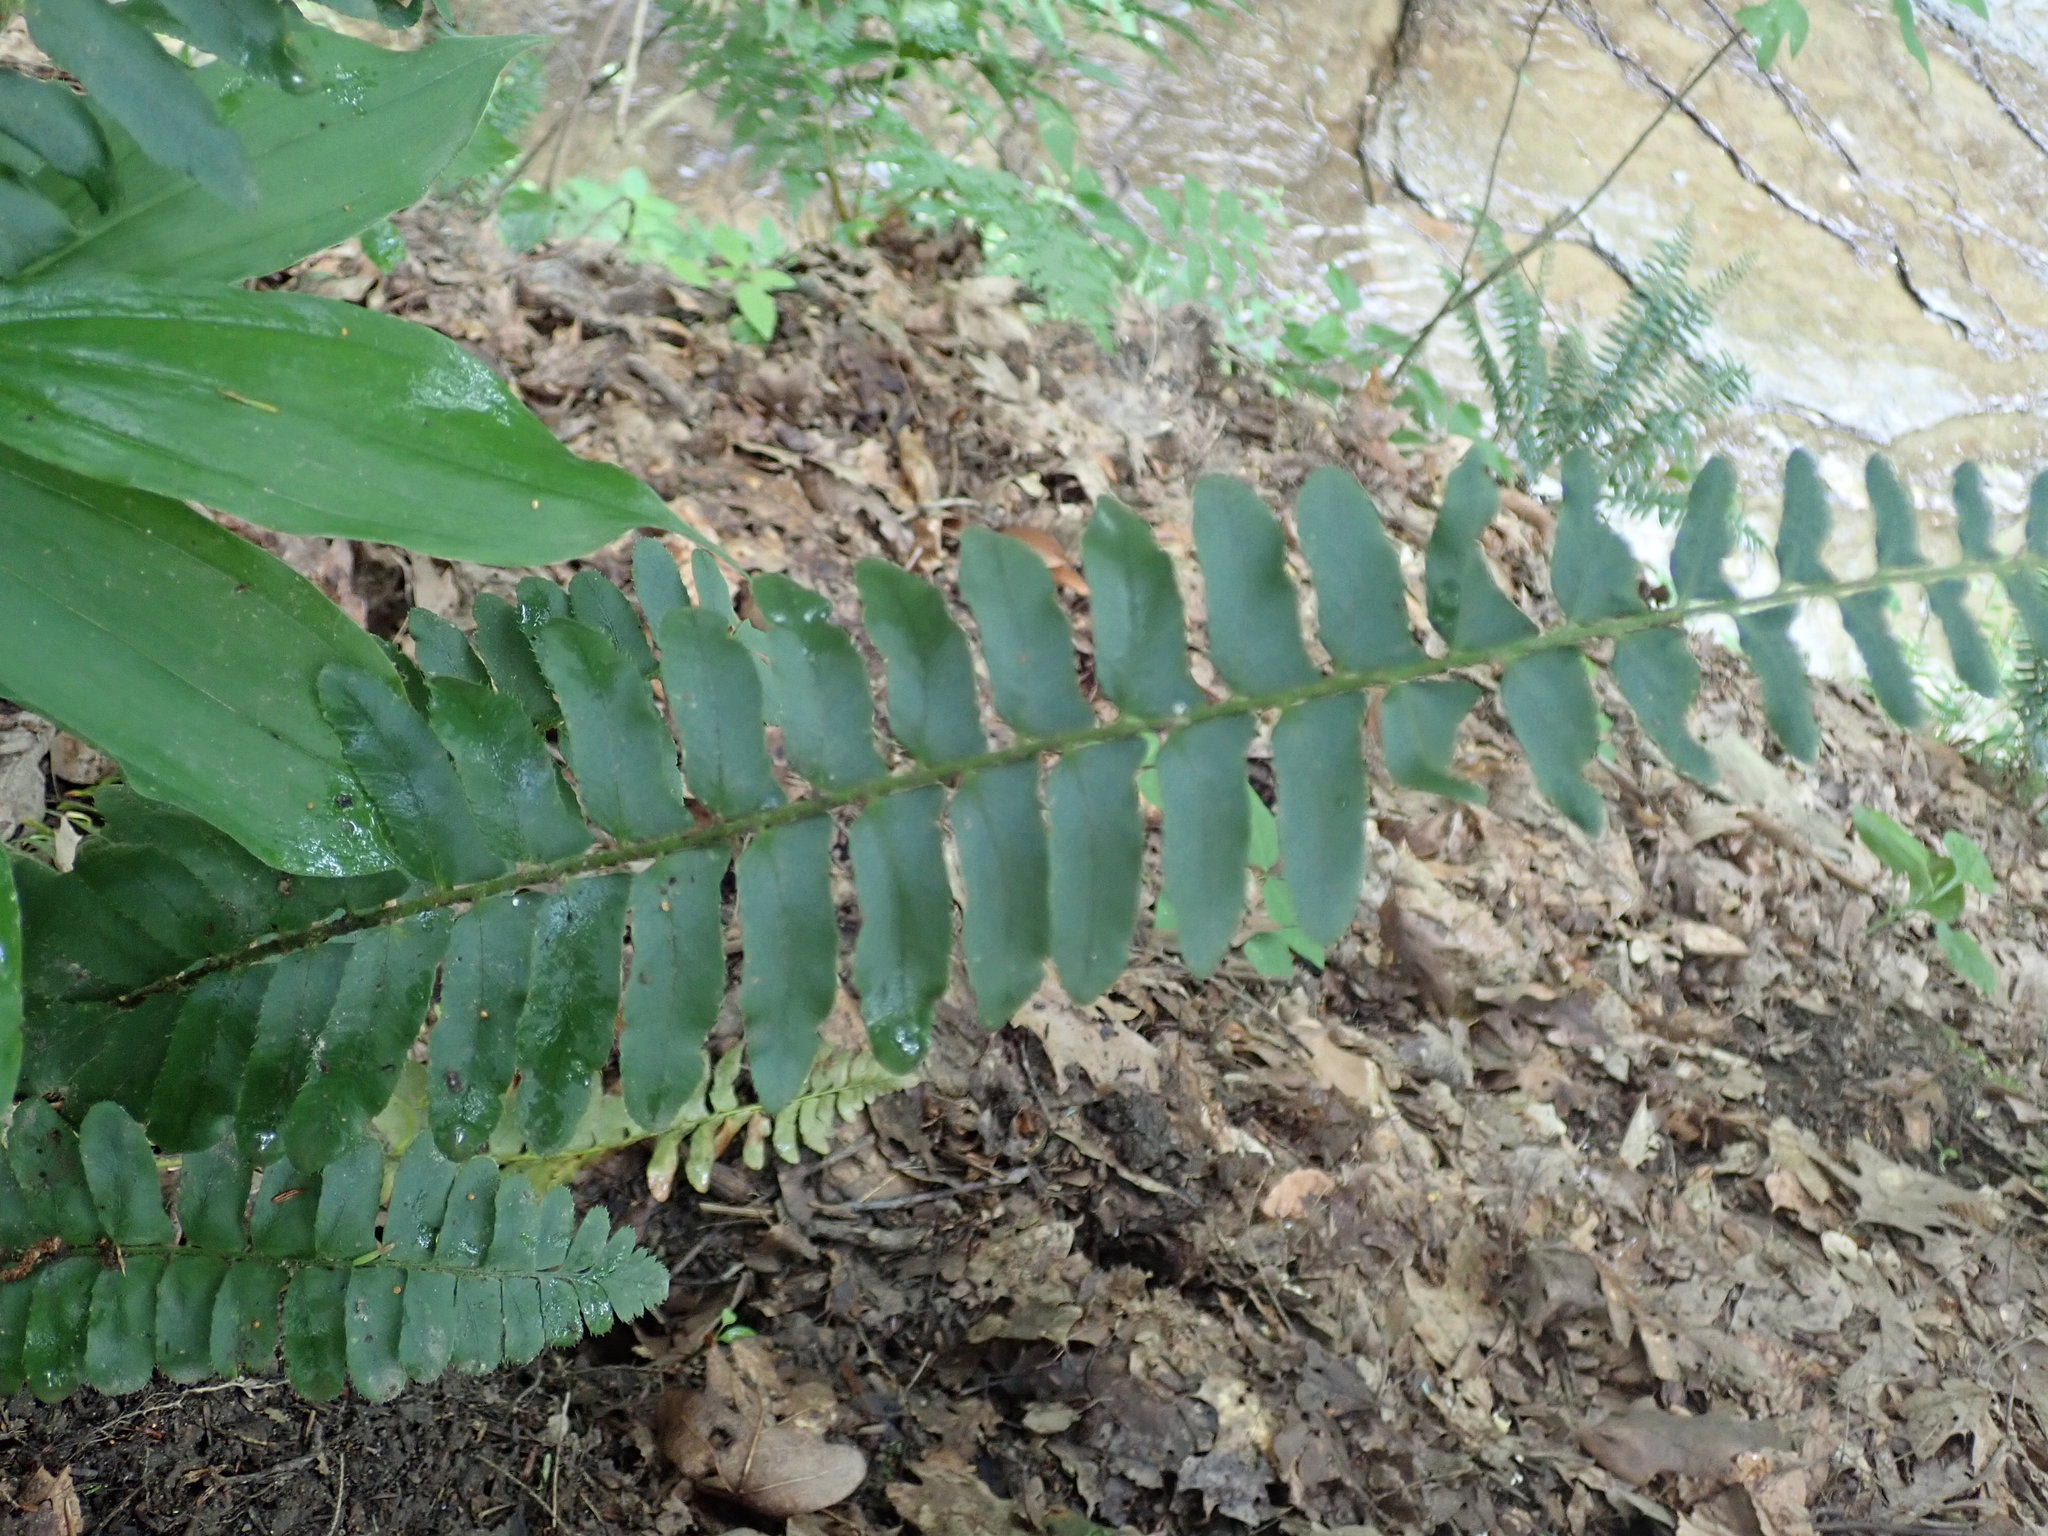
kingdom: Plantae
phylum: Tracheophyta
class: Polypodiopsida
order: Polypodiales
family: Dryopteridaceae
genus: Polystichum
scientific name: Polystichum acrostichoides
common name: Christmas fern
